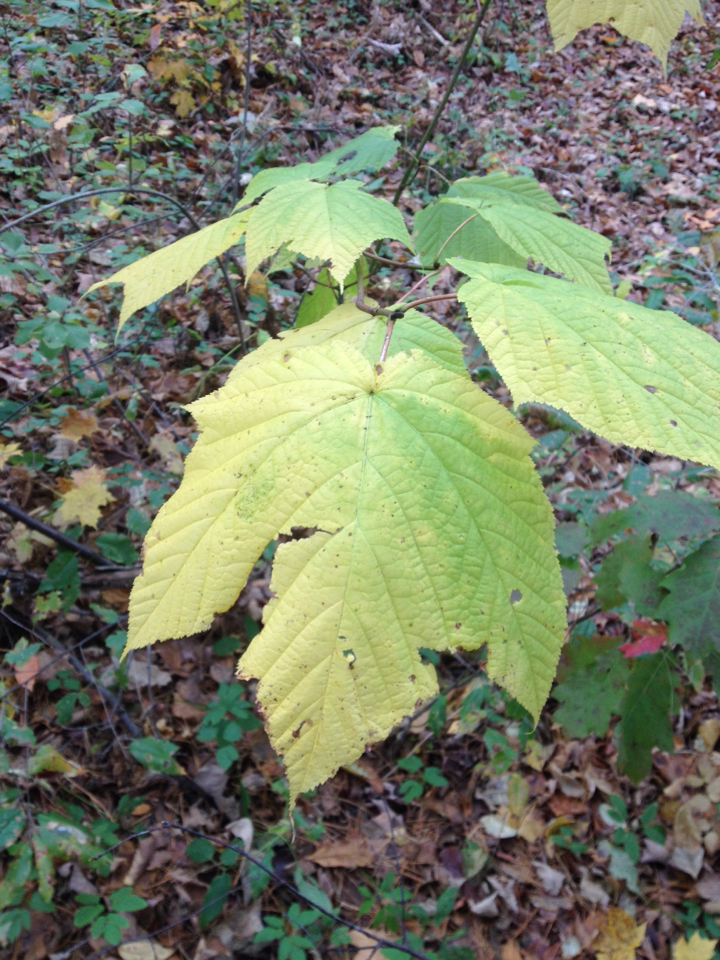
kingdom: Plantae
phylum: Tracheophyta
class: Magnoliopsida
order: Sapindales
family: Sapindaceae
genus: Acer
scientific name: Acer pensylvanicum
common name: Moosewood
